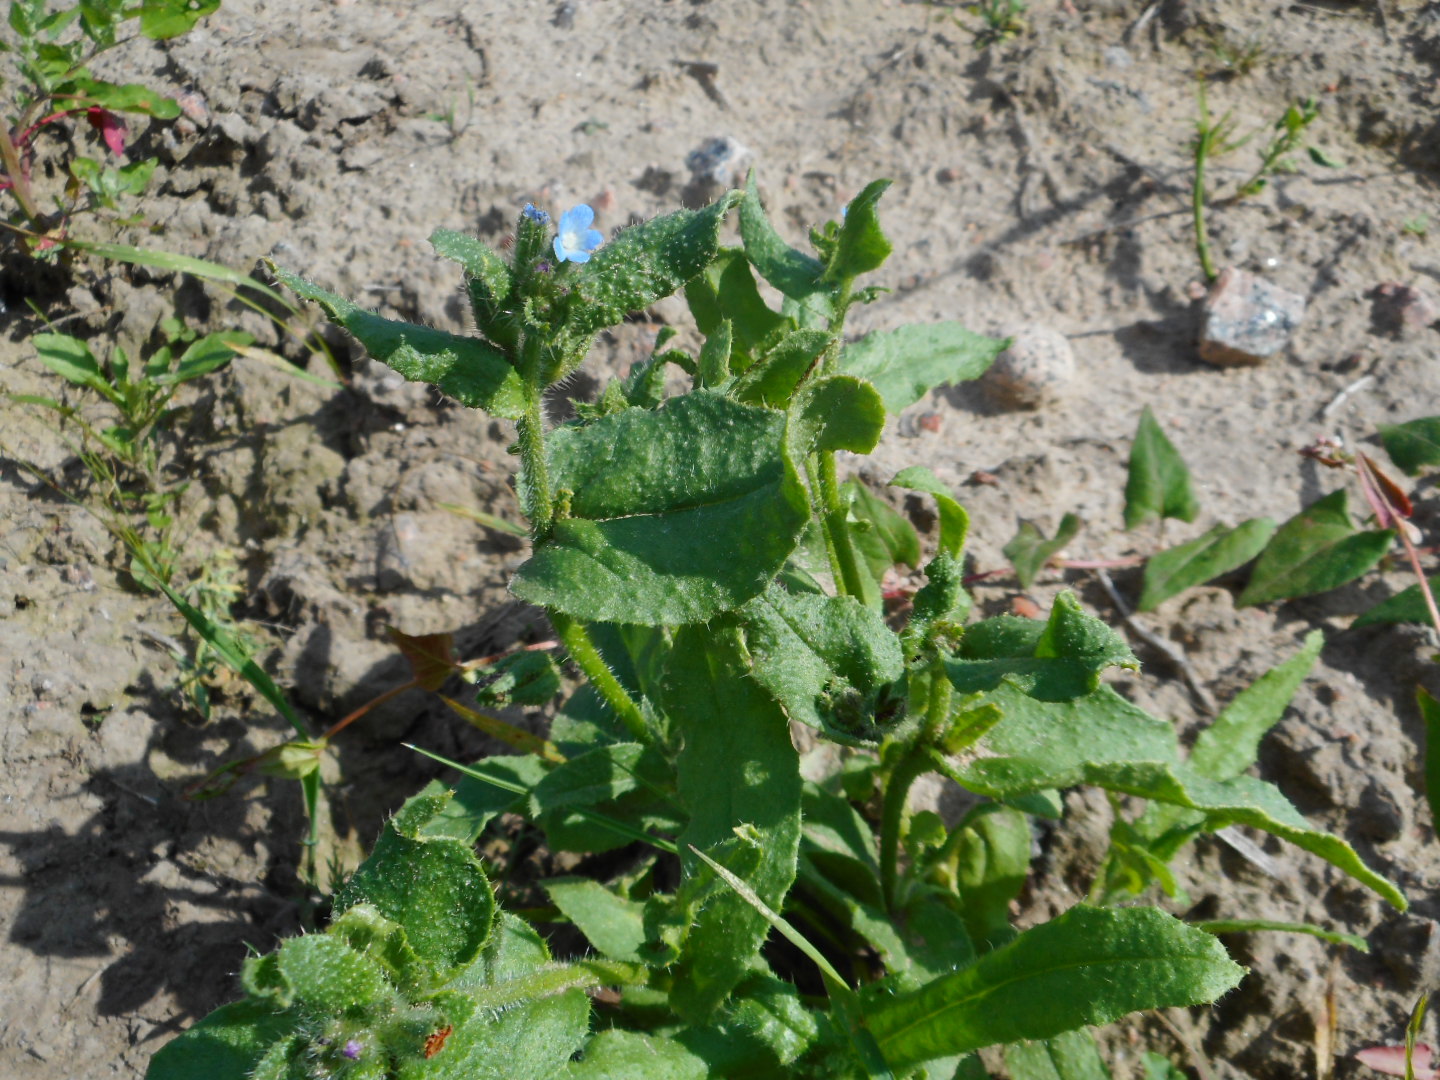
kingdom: Plantae
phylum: Tracheophyta
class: Magnoliopsida
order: Boraginales
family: Boraginaceae
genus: Lycopsis
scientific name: Lycopsis arvensis
